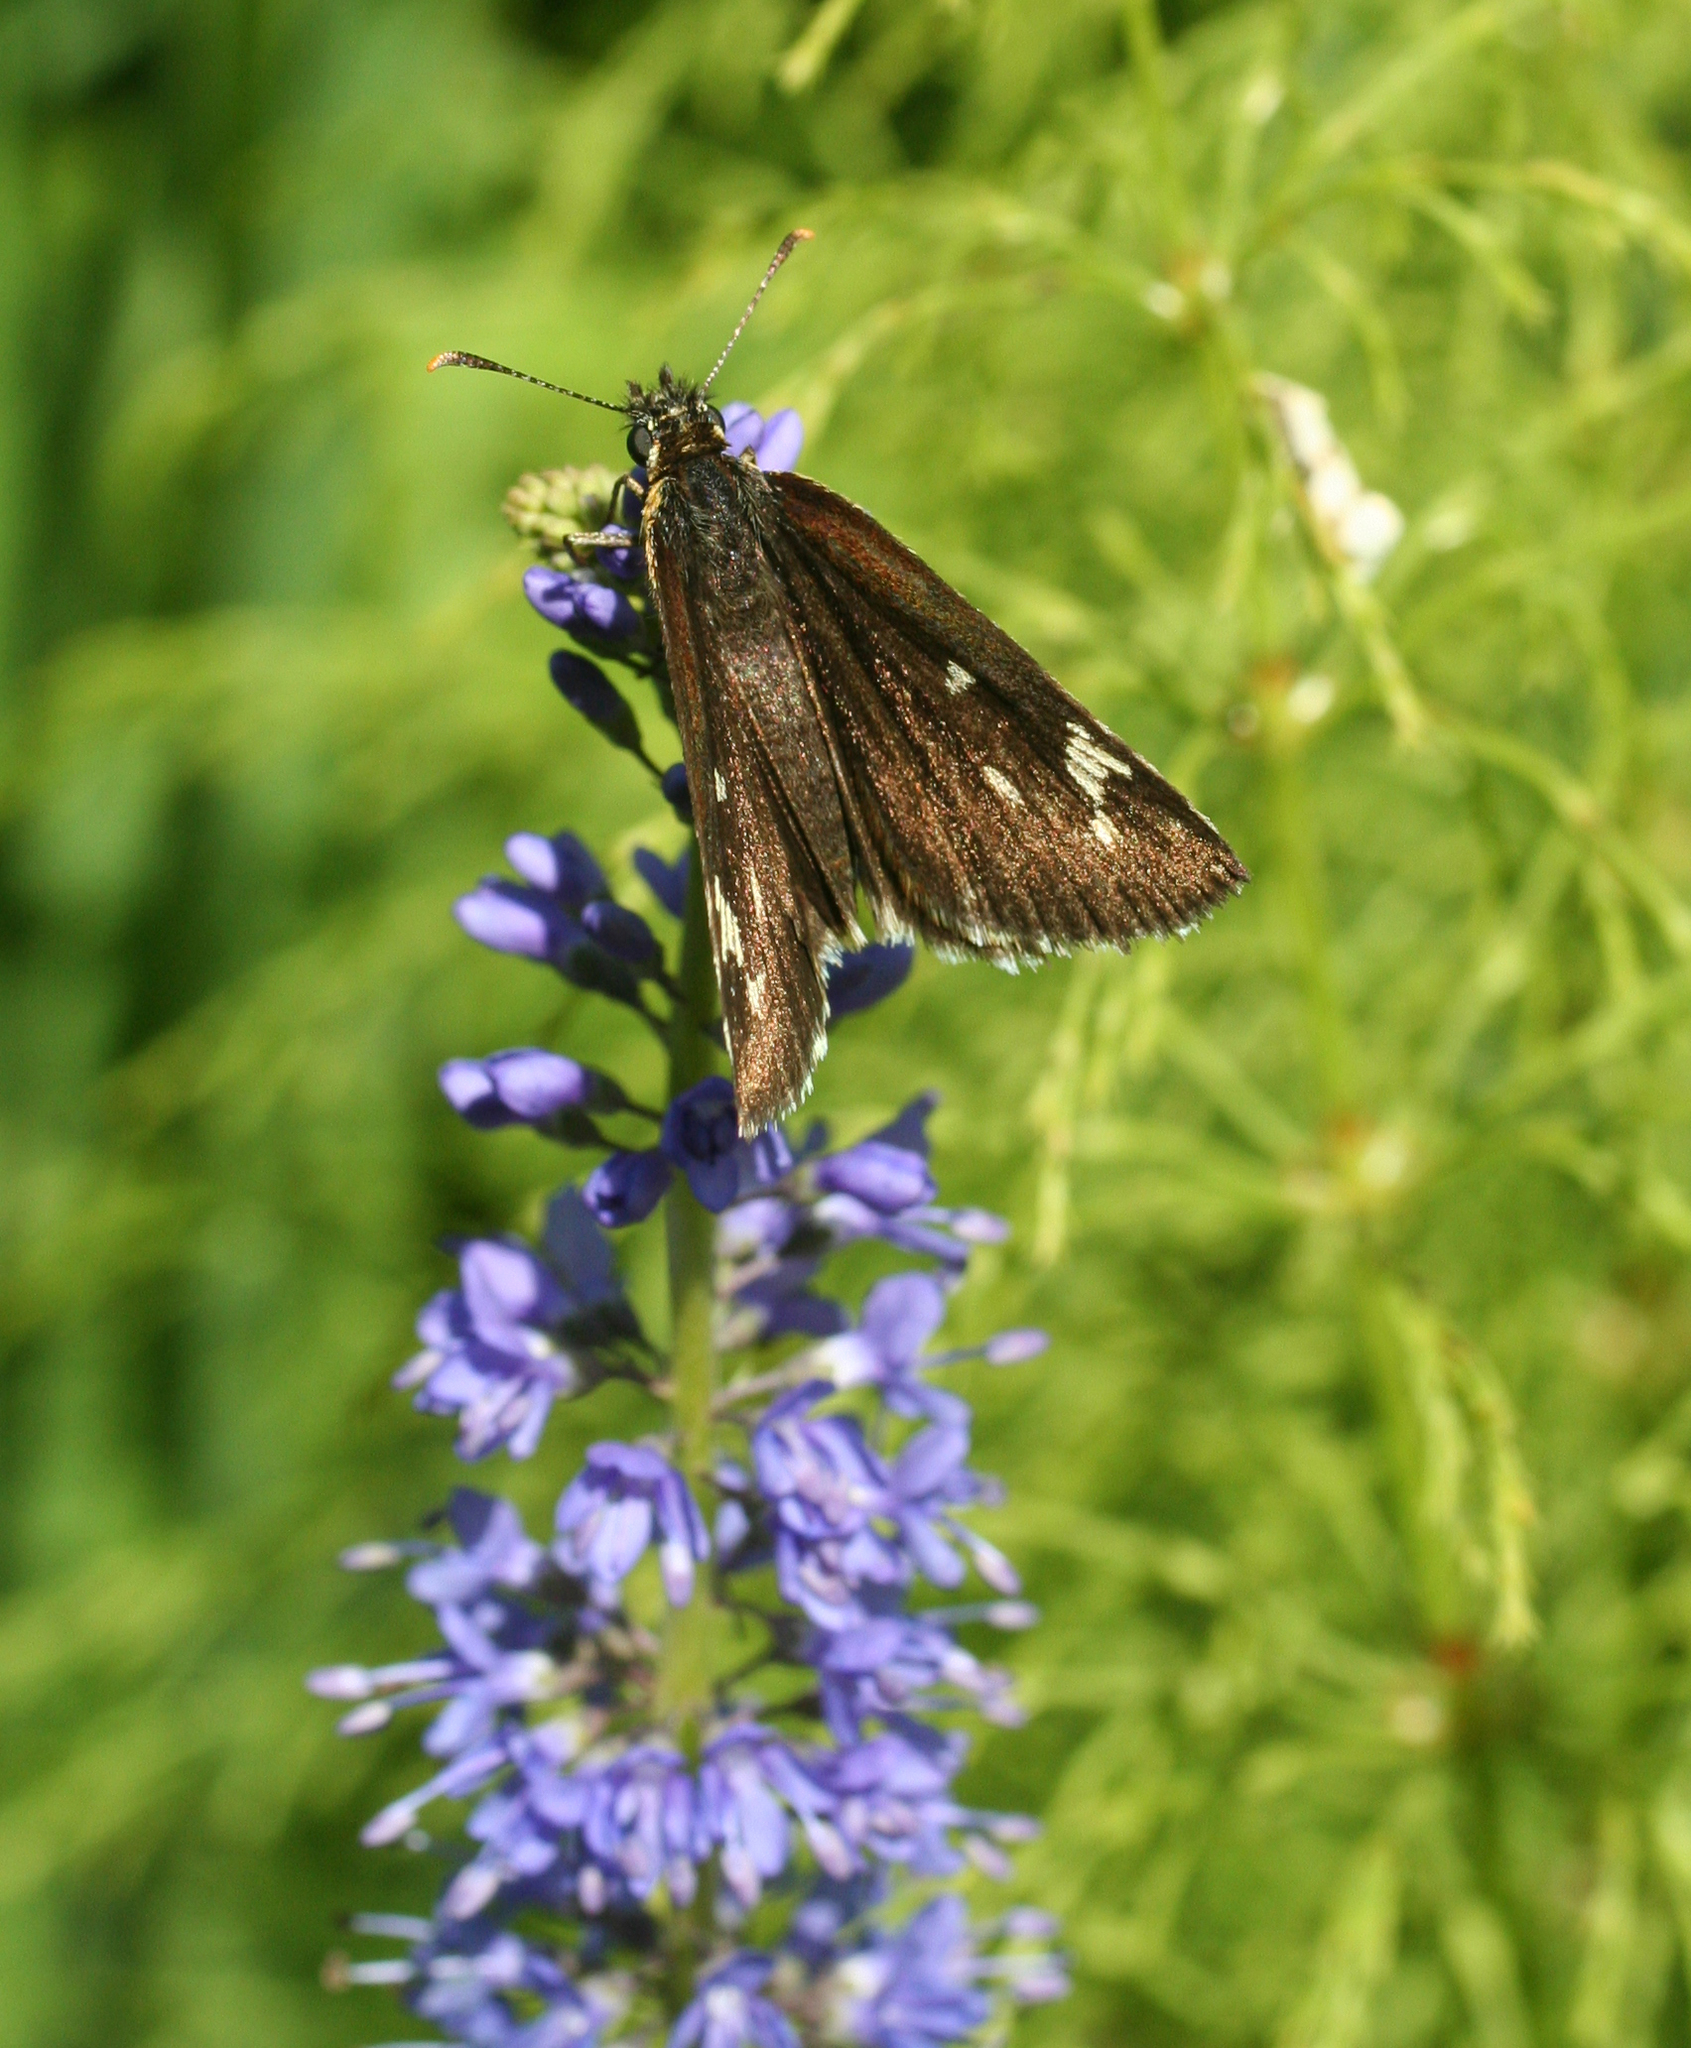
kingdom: Animalia
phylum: Arthropoda
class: Insecta
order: Lepidoptera
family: Hesperiidae
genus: Heteropterus
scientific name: Heteropterus morpheus
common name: Large chequered skipper
